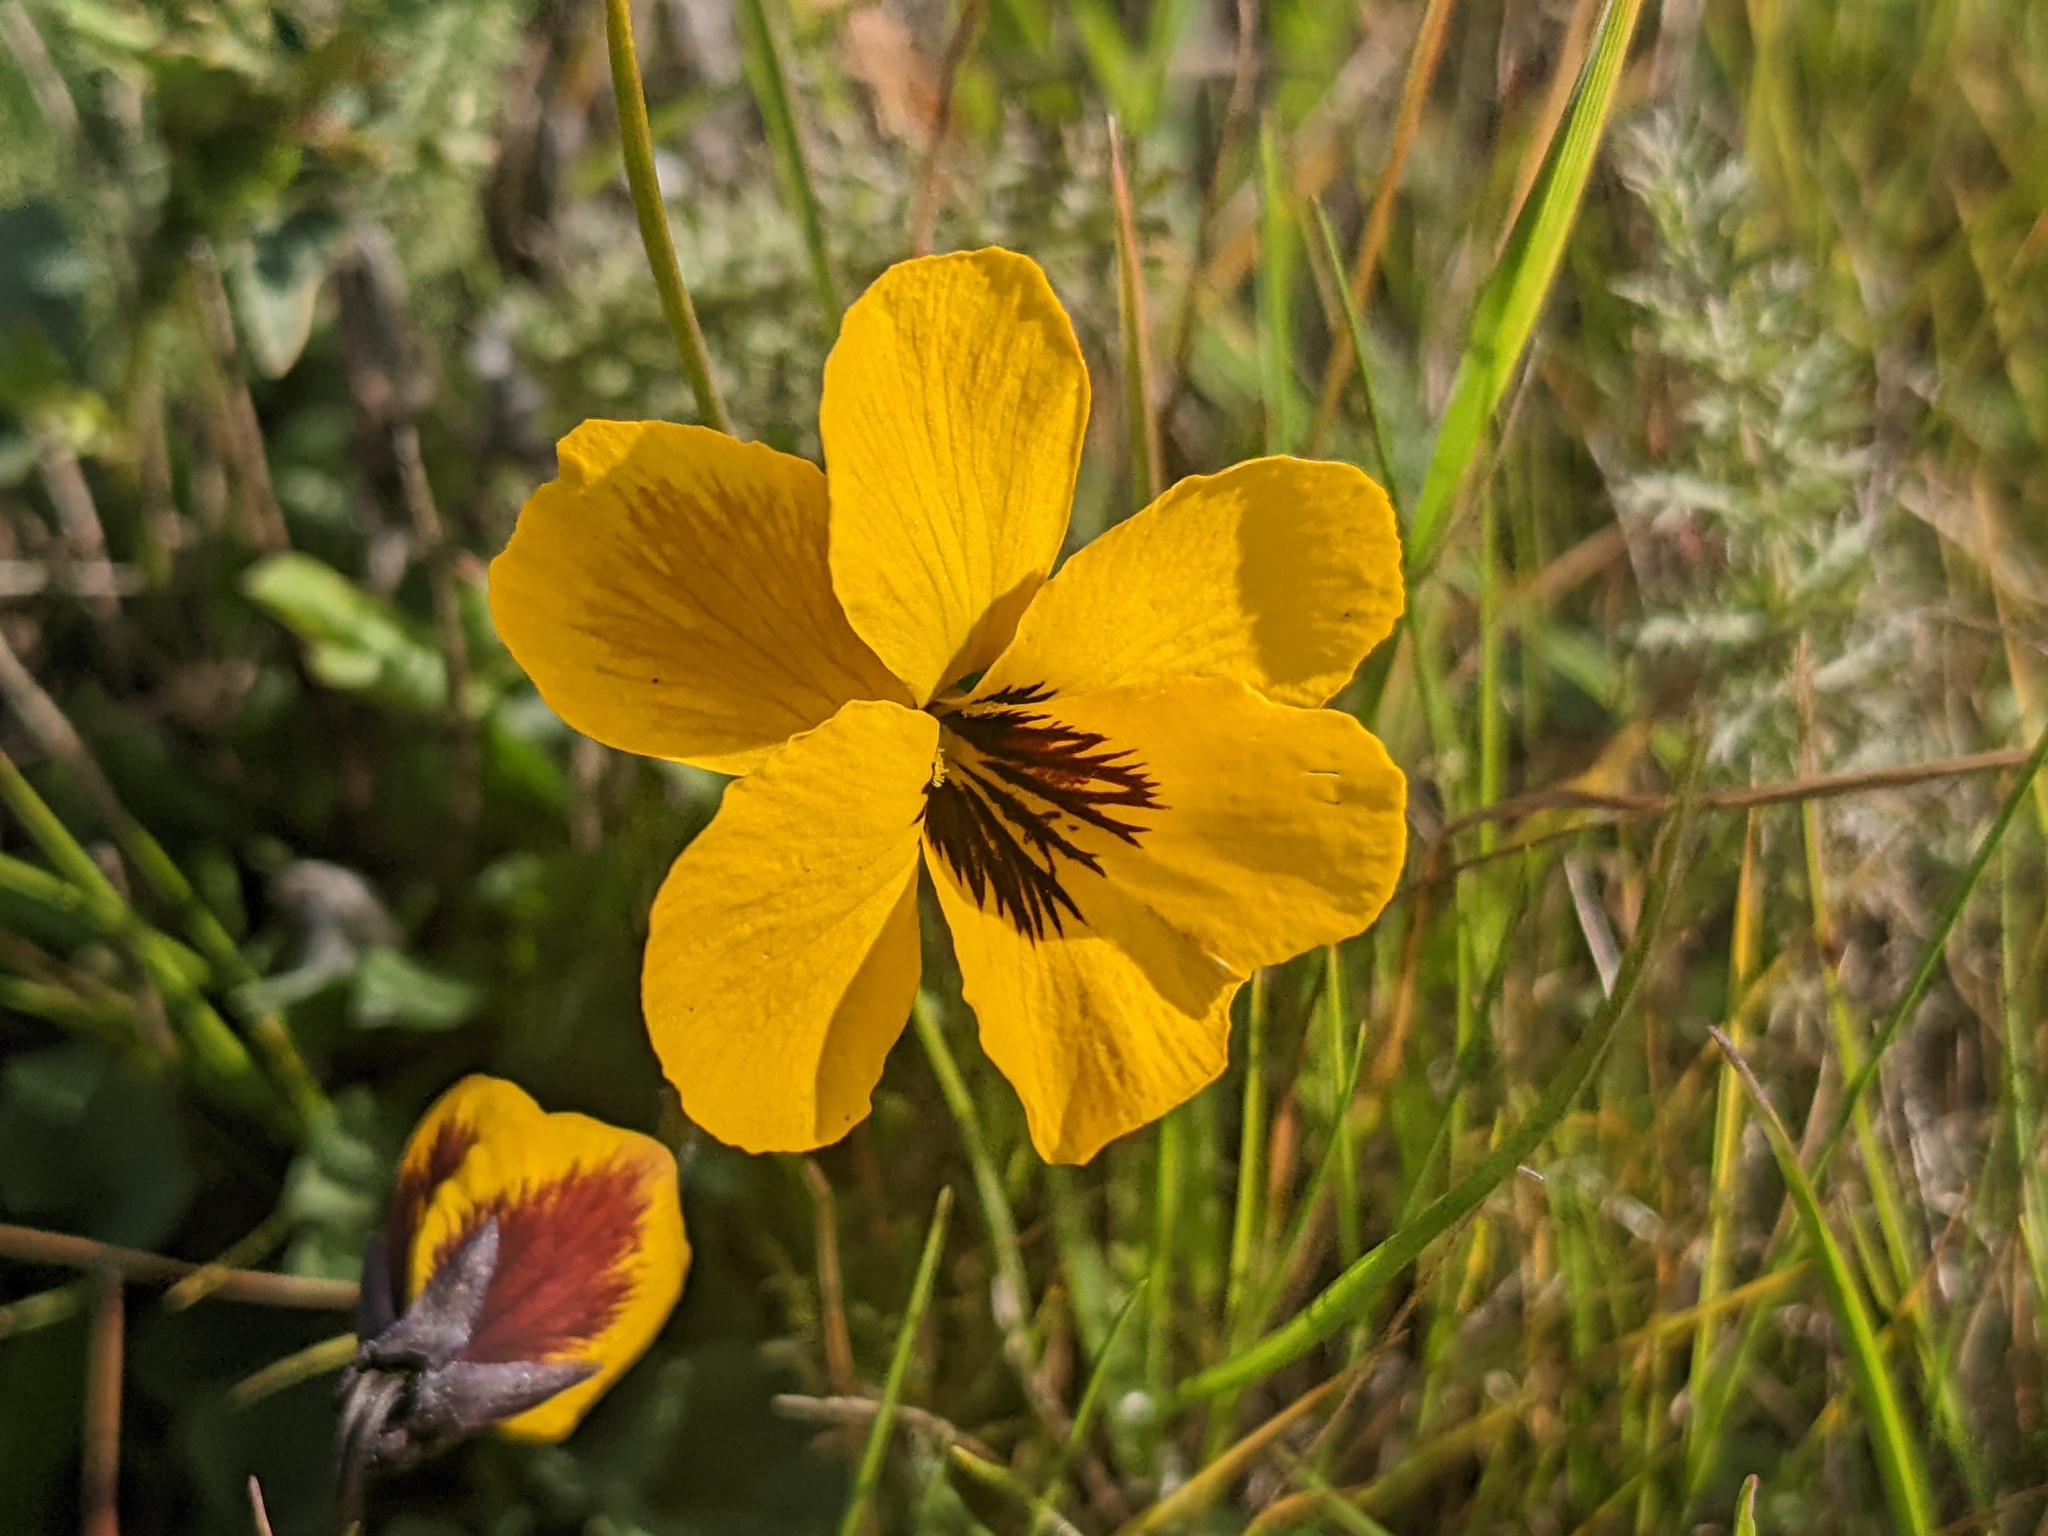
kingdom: Plantae
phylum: Tracheophyta
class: Magnoliopsida
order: Malpighiales
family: Violaceae
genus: Viola
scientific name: Viola pedunculata
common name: California golden violet
